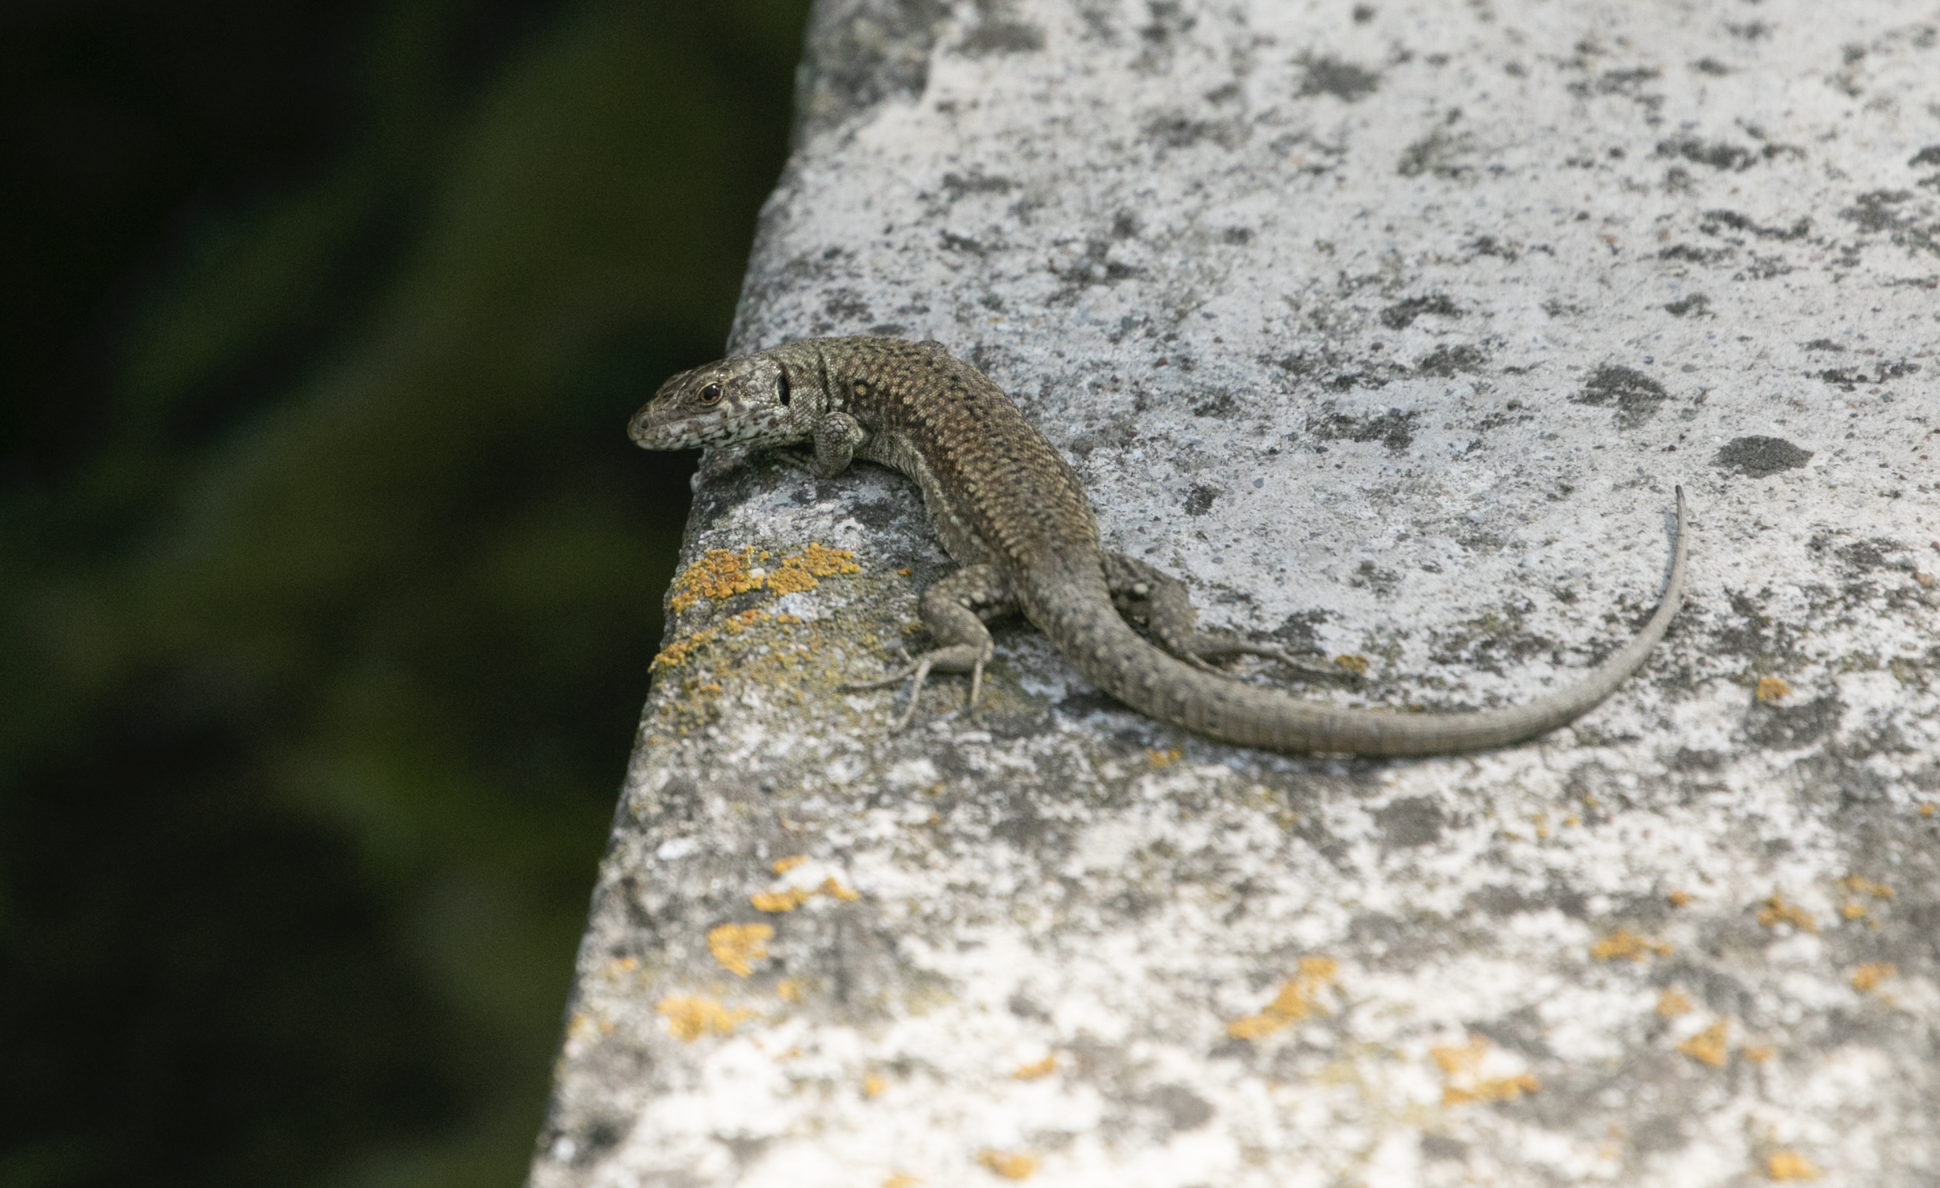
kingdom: Animalia
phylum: Chordata
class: Squamata
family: Lacertidae
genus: Podarcis
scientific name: Podarcis muralis
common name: Common wall lizard
